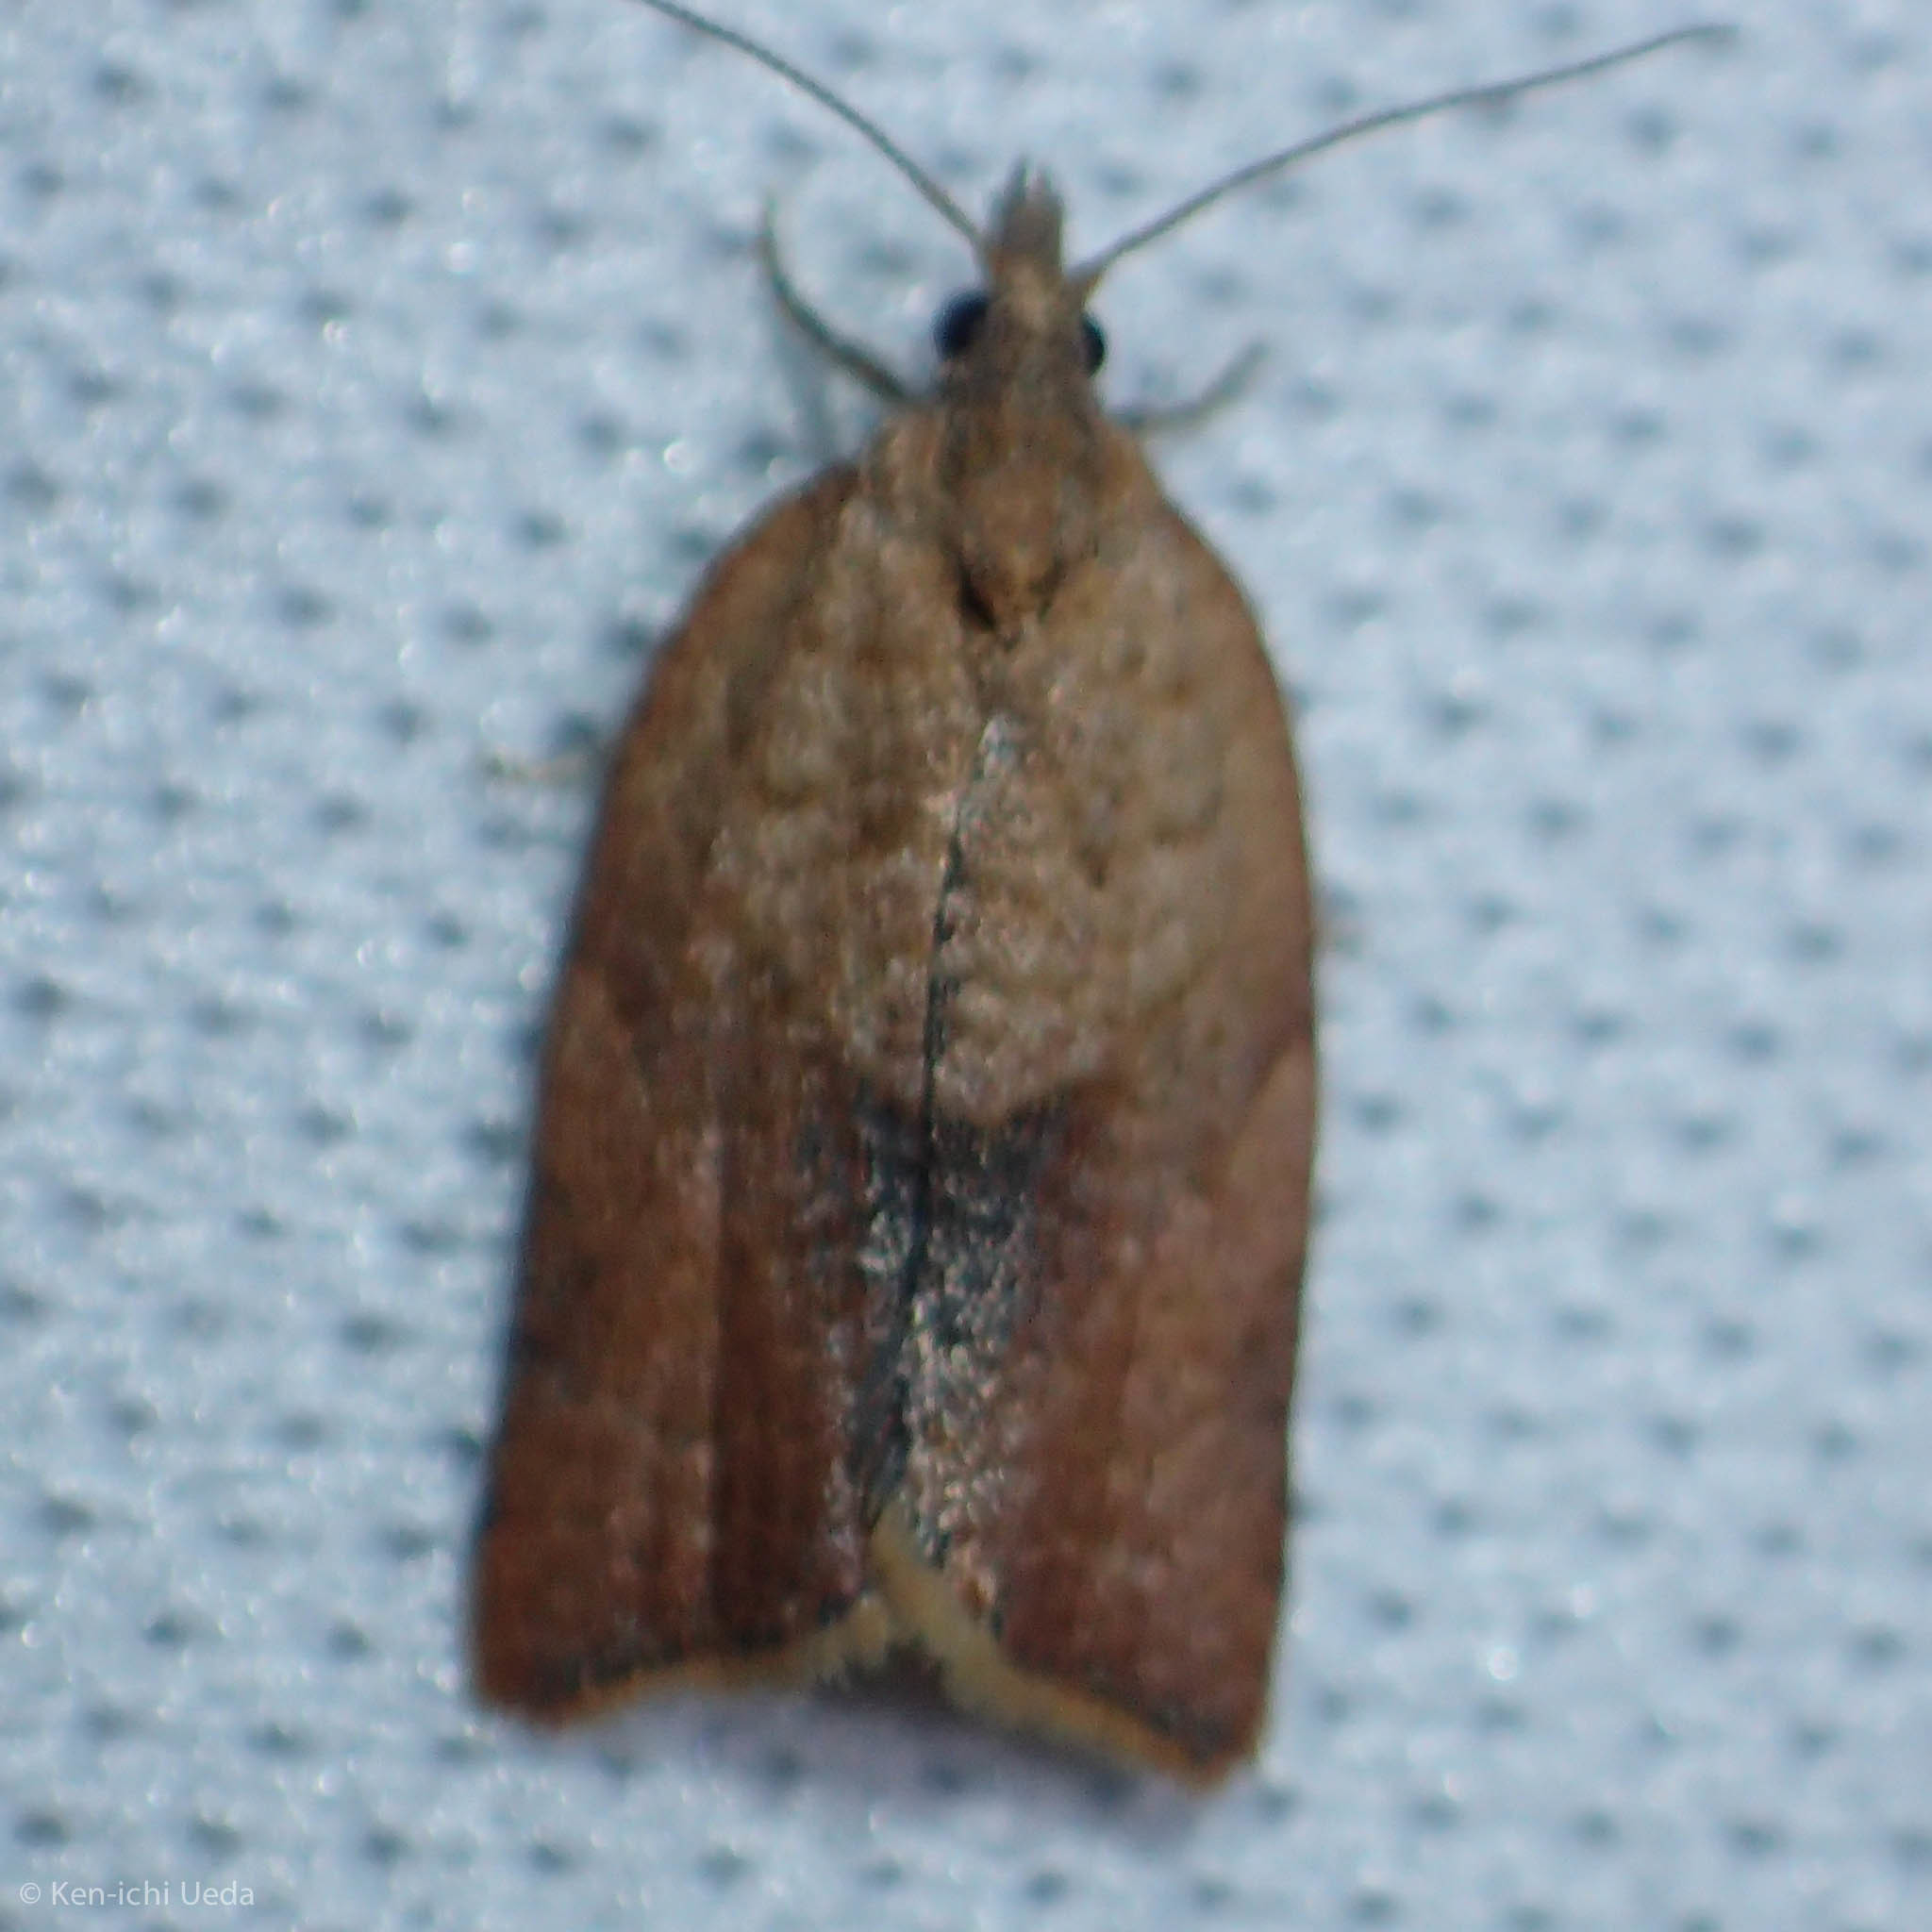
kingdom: Animalia
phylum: Arthropoda
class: Insecta
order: Lepidoptera
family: Tortricidae
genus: Epiphyas
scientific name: Epiphyas postvittana
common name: Light brown apple moth
